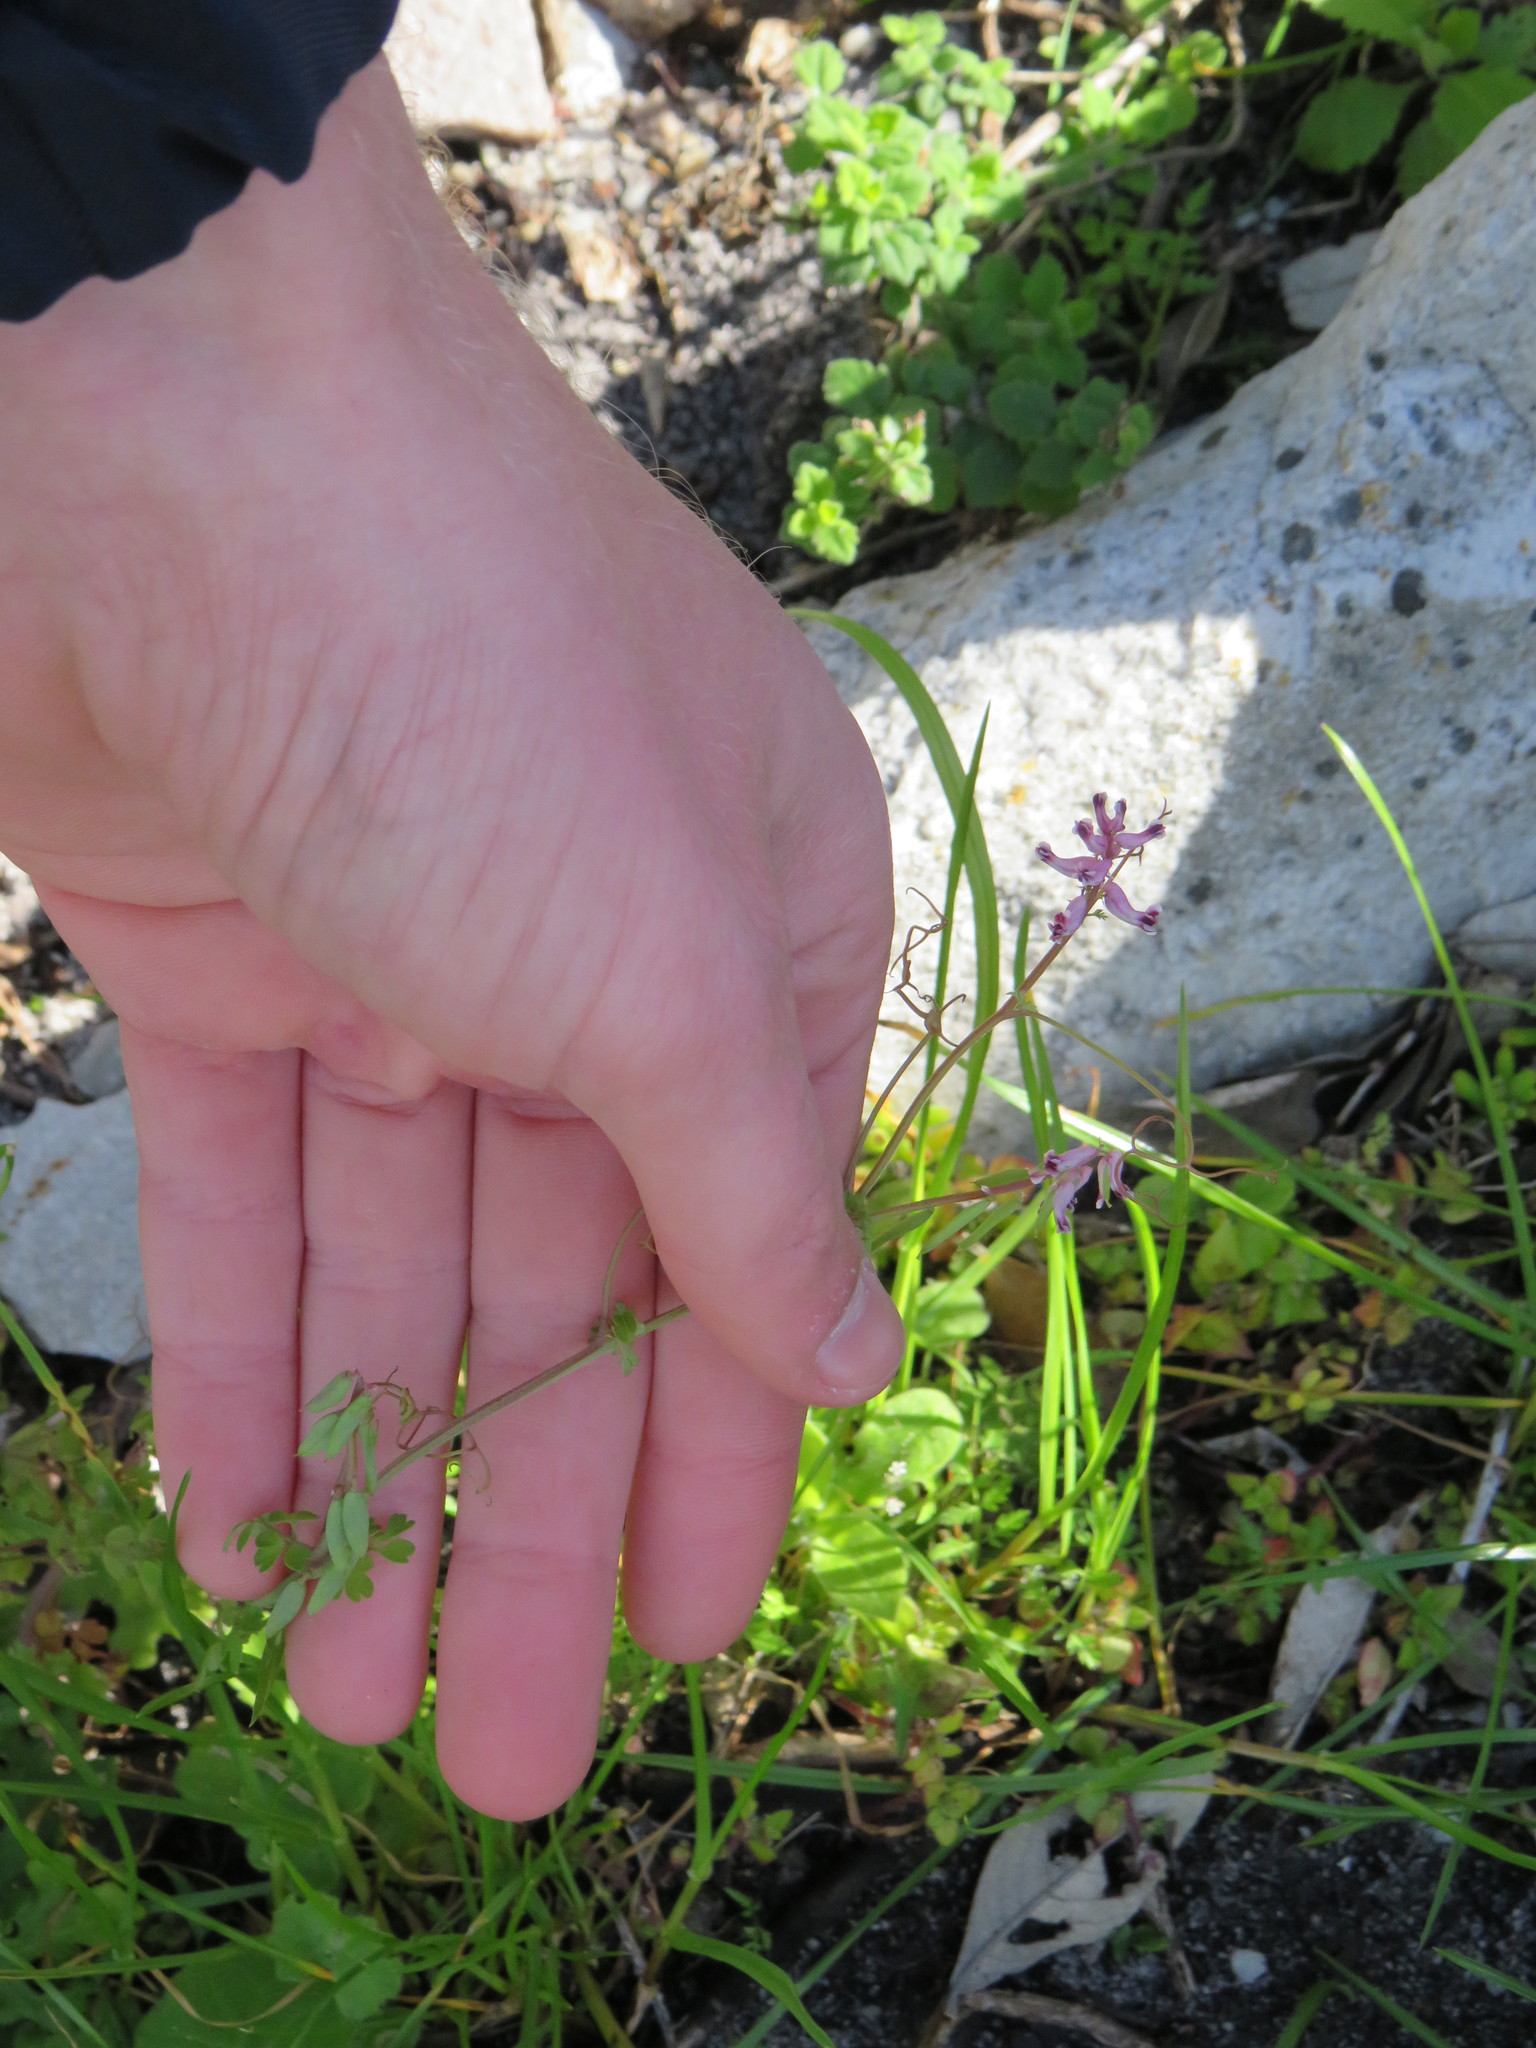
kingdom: Plantae
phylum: Tracheophyta
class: Magnoliopsida
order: Ranunculales
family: Papaveraceae
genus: Cysticapnos
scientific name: Cysticapnos cracca
